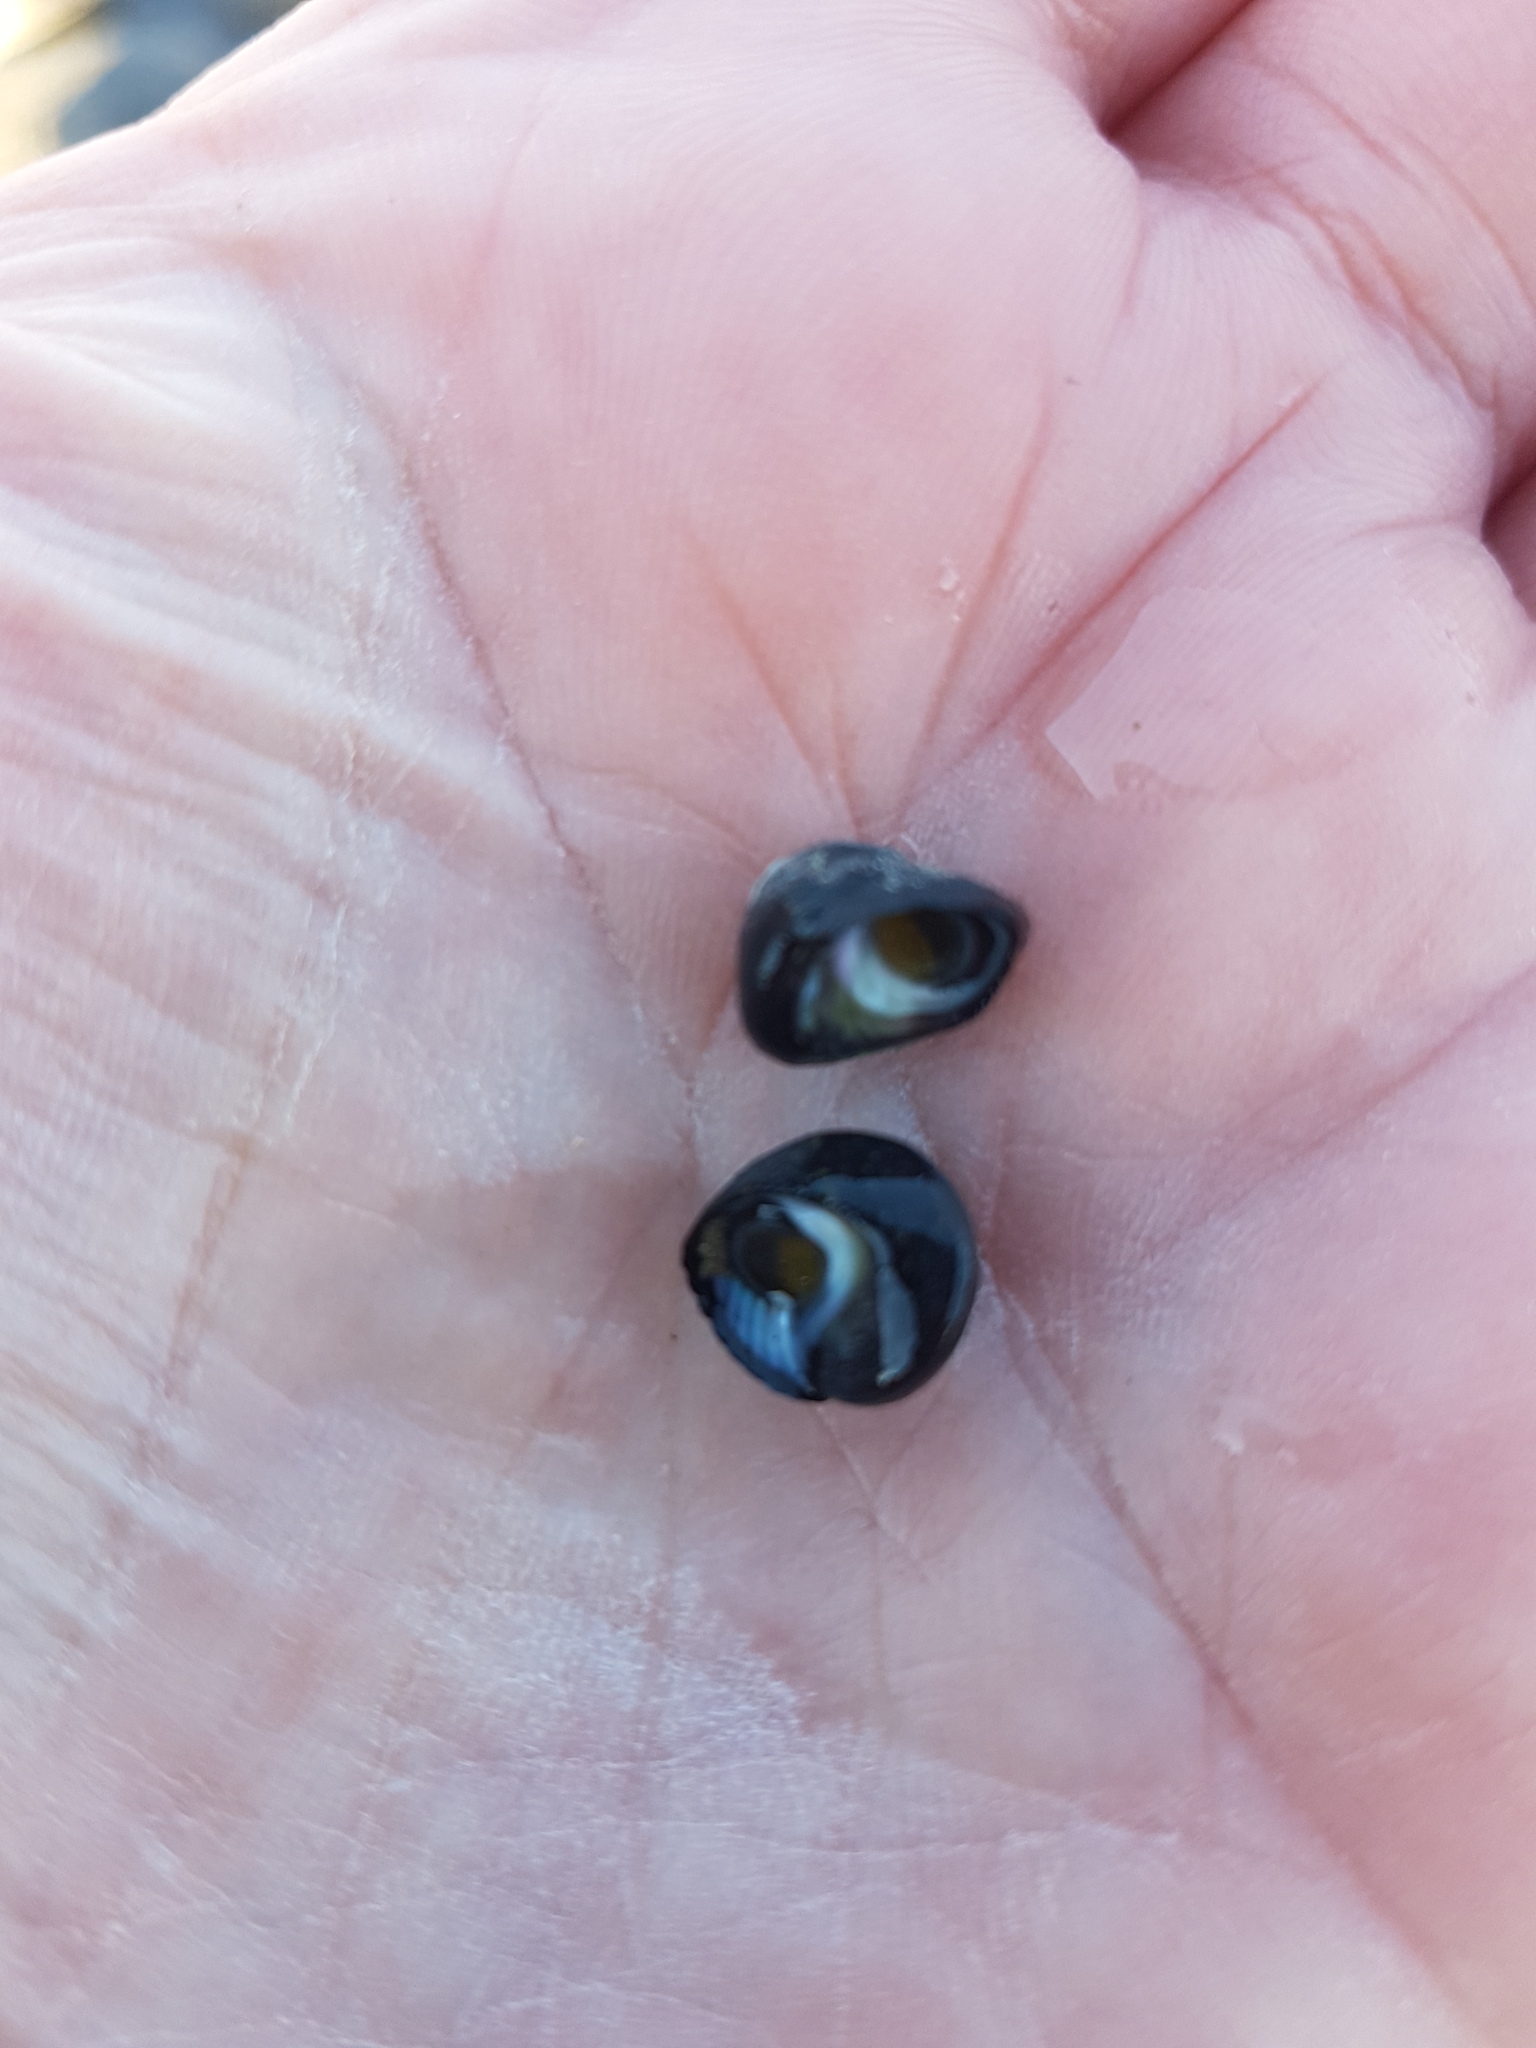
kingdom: Animalia
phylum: Mollusca
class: Gastropoda
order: Trochida
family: Trochidae
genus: Diloma
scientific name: Diloma zelandicum
